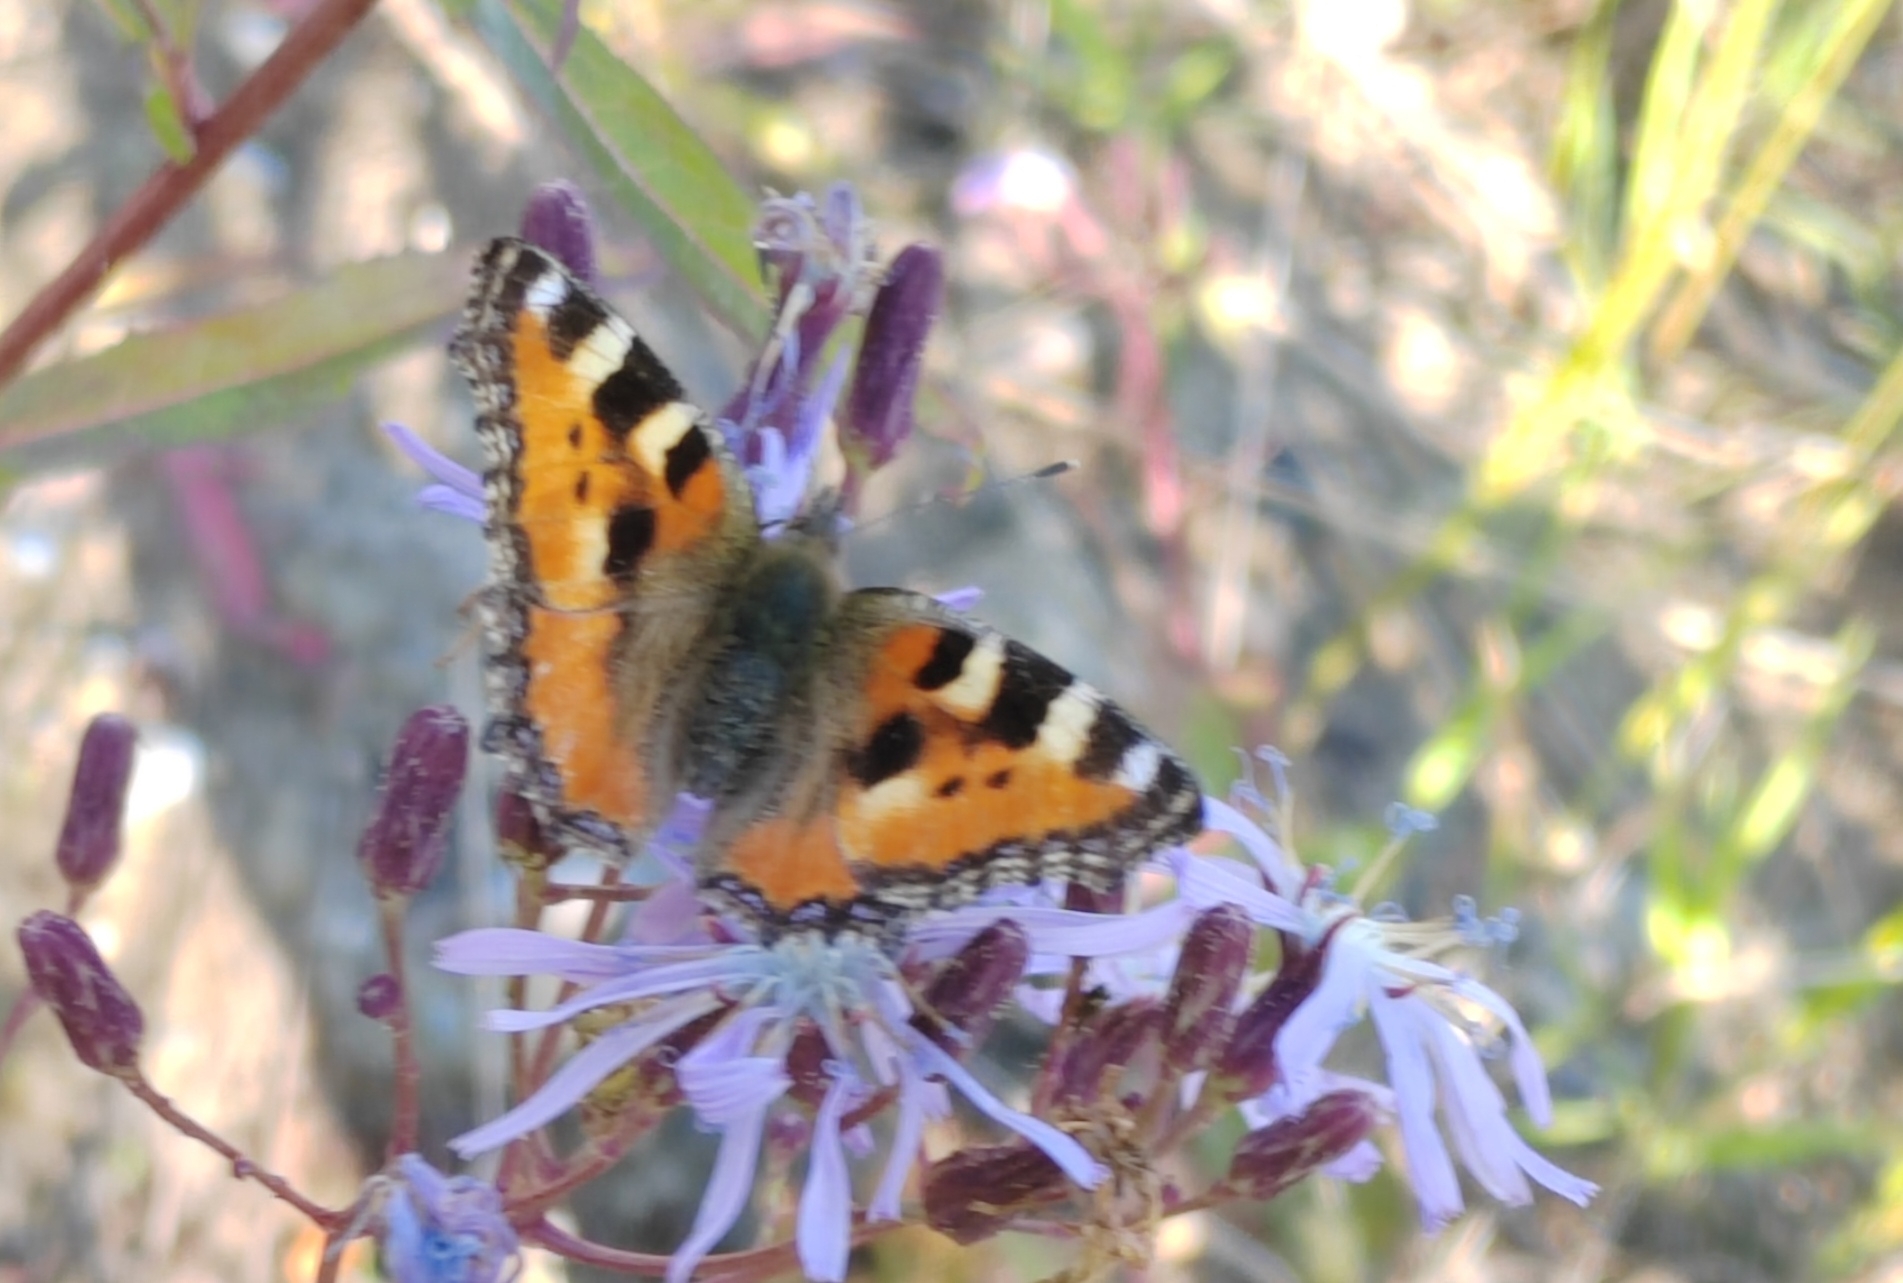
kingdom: Animalia
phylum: Arthropoda
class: Insecta
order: Lepidoptera
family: Nymphalidae
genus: Aglais
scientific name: Aglais urticae
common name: Small tortoiseshell
